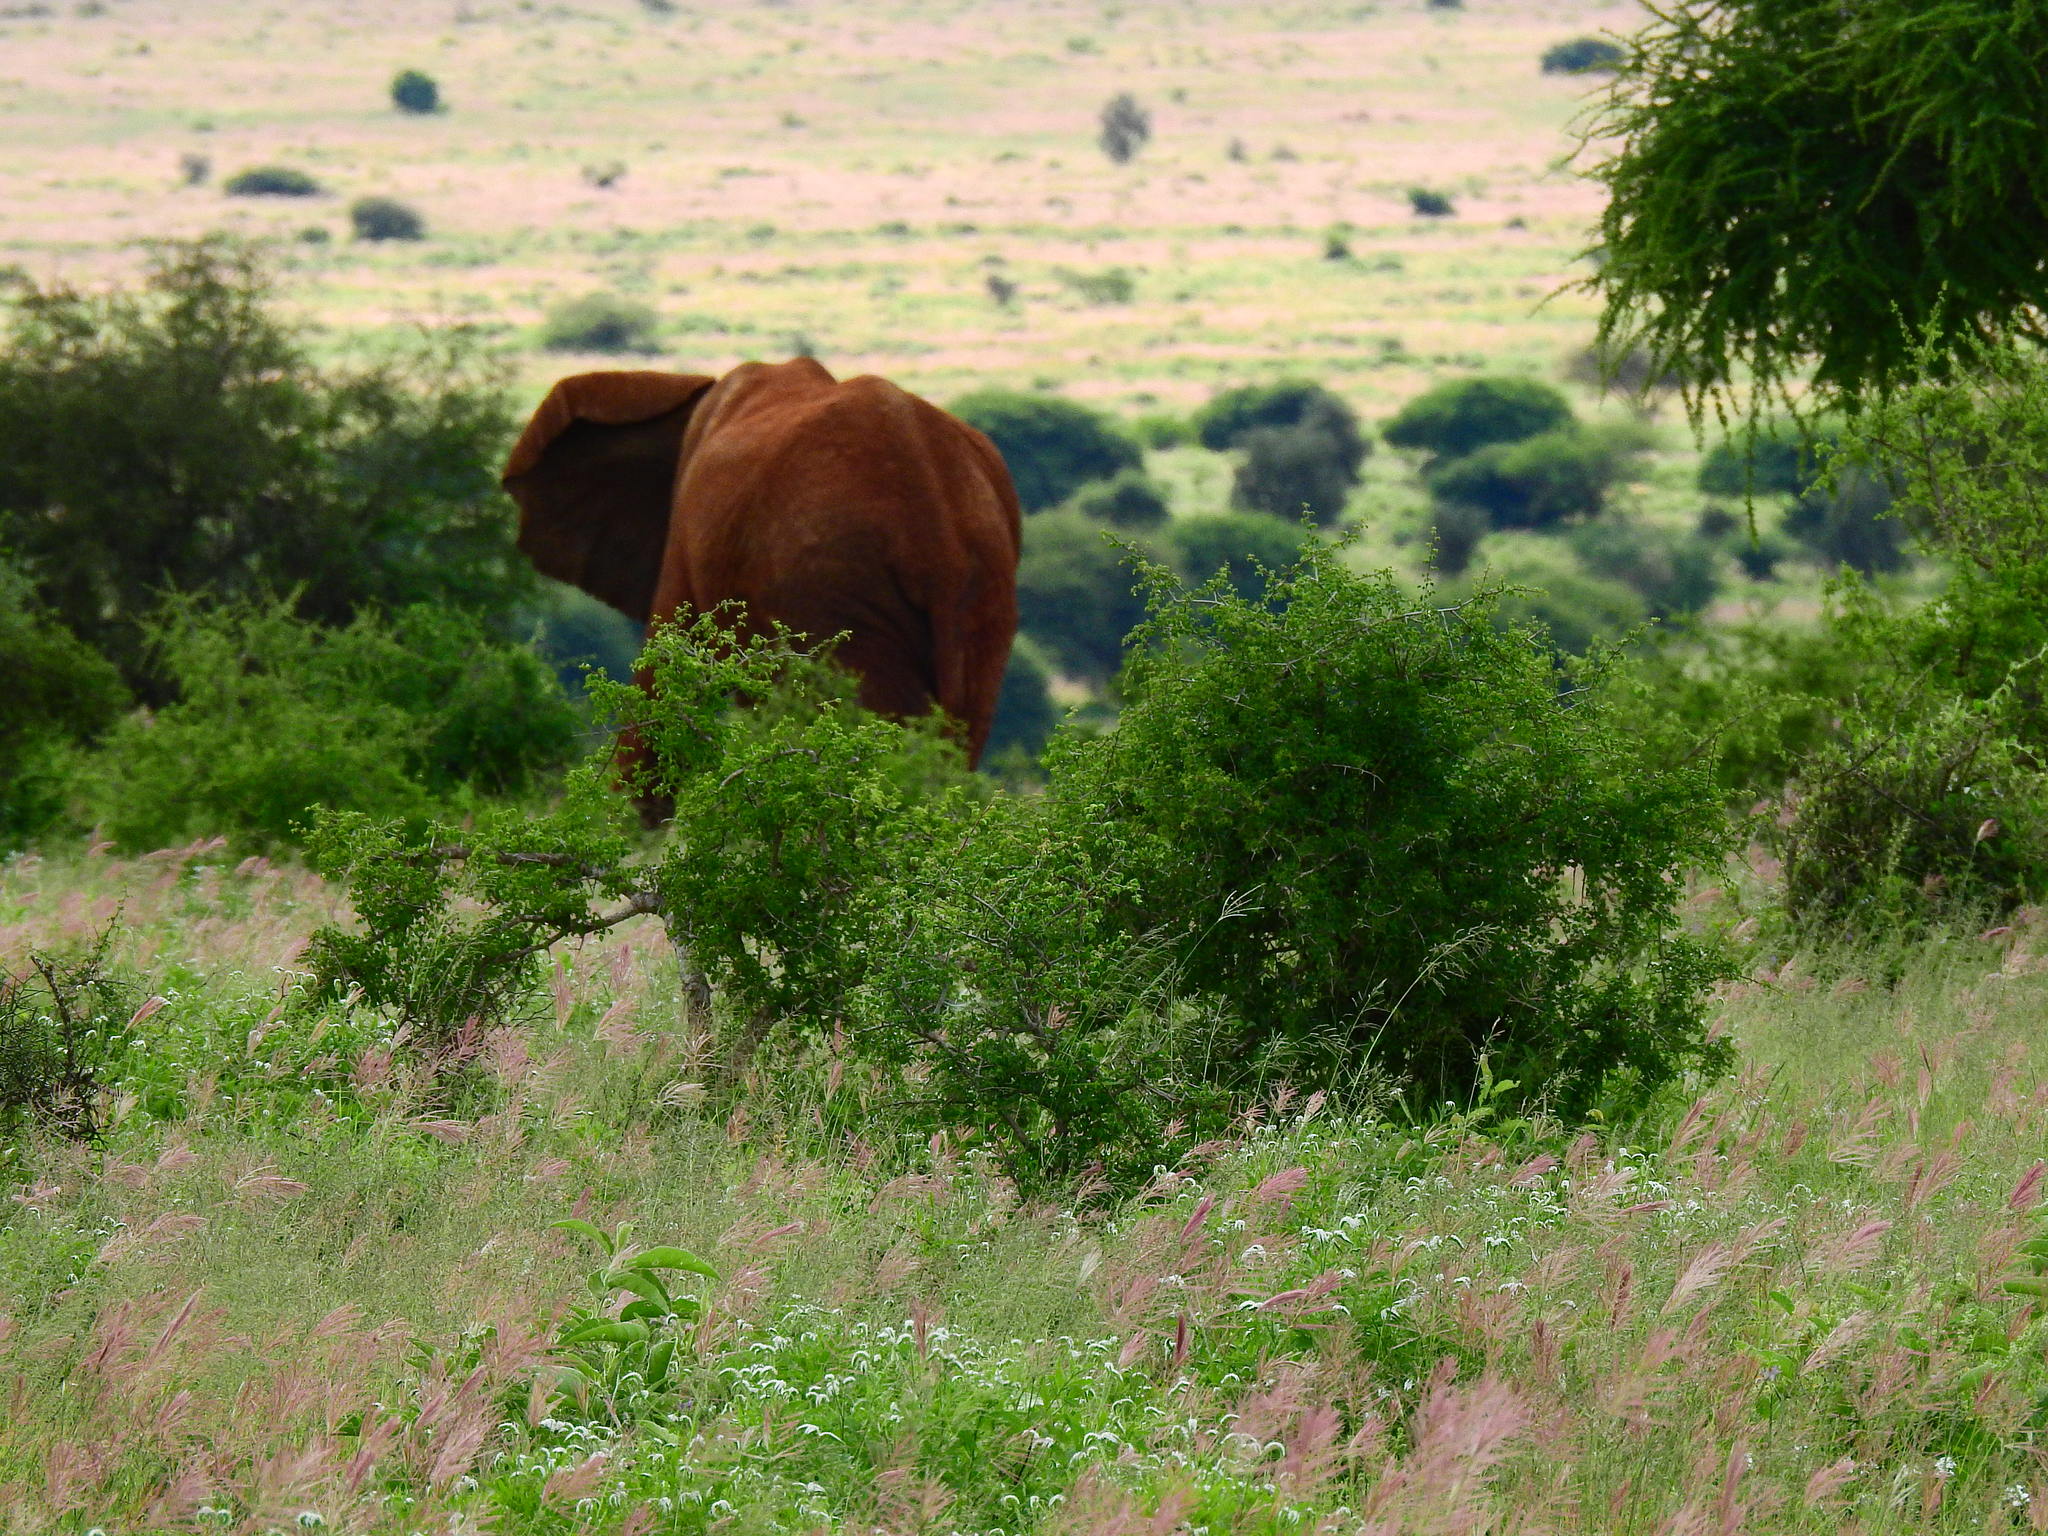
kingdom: Animalia
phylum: Chordata
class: Mammalia
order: Proboscidea
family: Elephantidae
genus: Loxodonta
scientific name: Loxodonta africana
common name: African elephant
